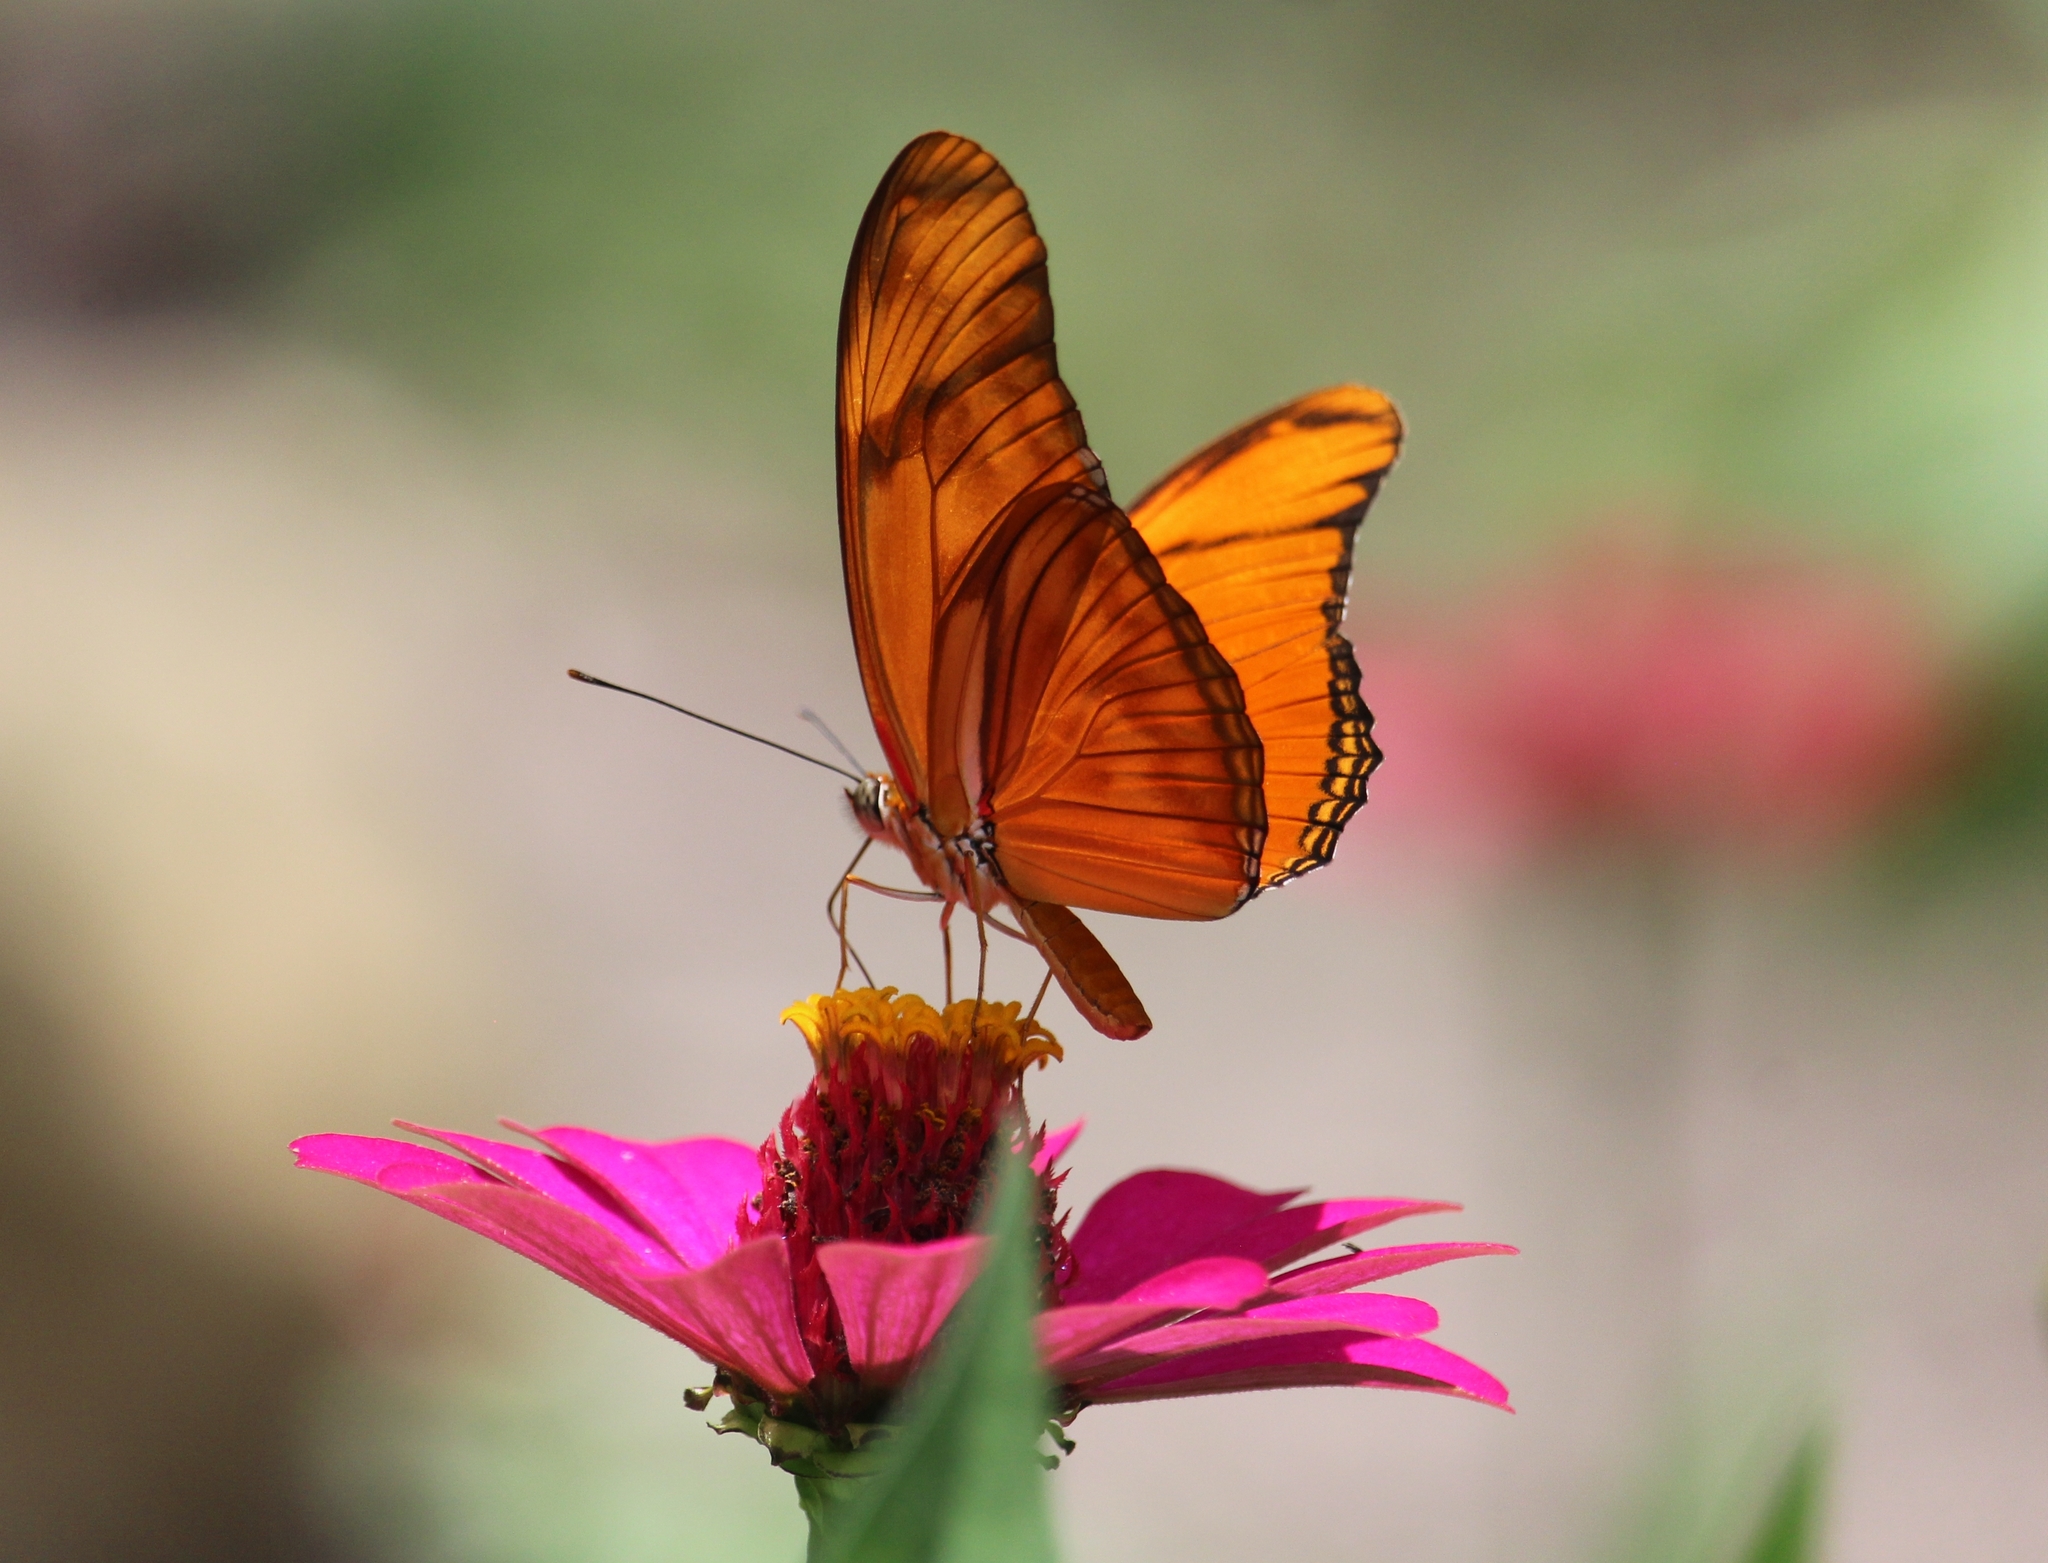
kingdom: Animalia
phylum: Arthropoda
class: Insecta
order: Lepidoptera
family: Nymphalidae
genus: Dryas
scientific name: Dryas iulia
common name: Flambeau
